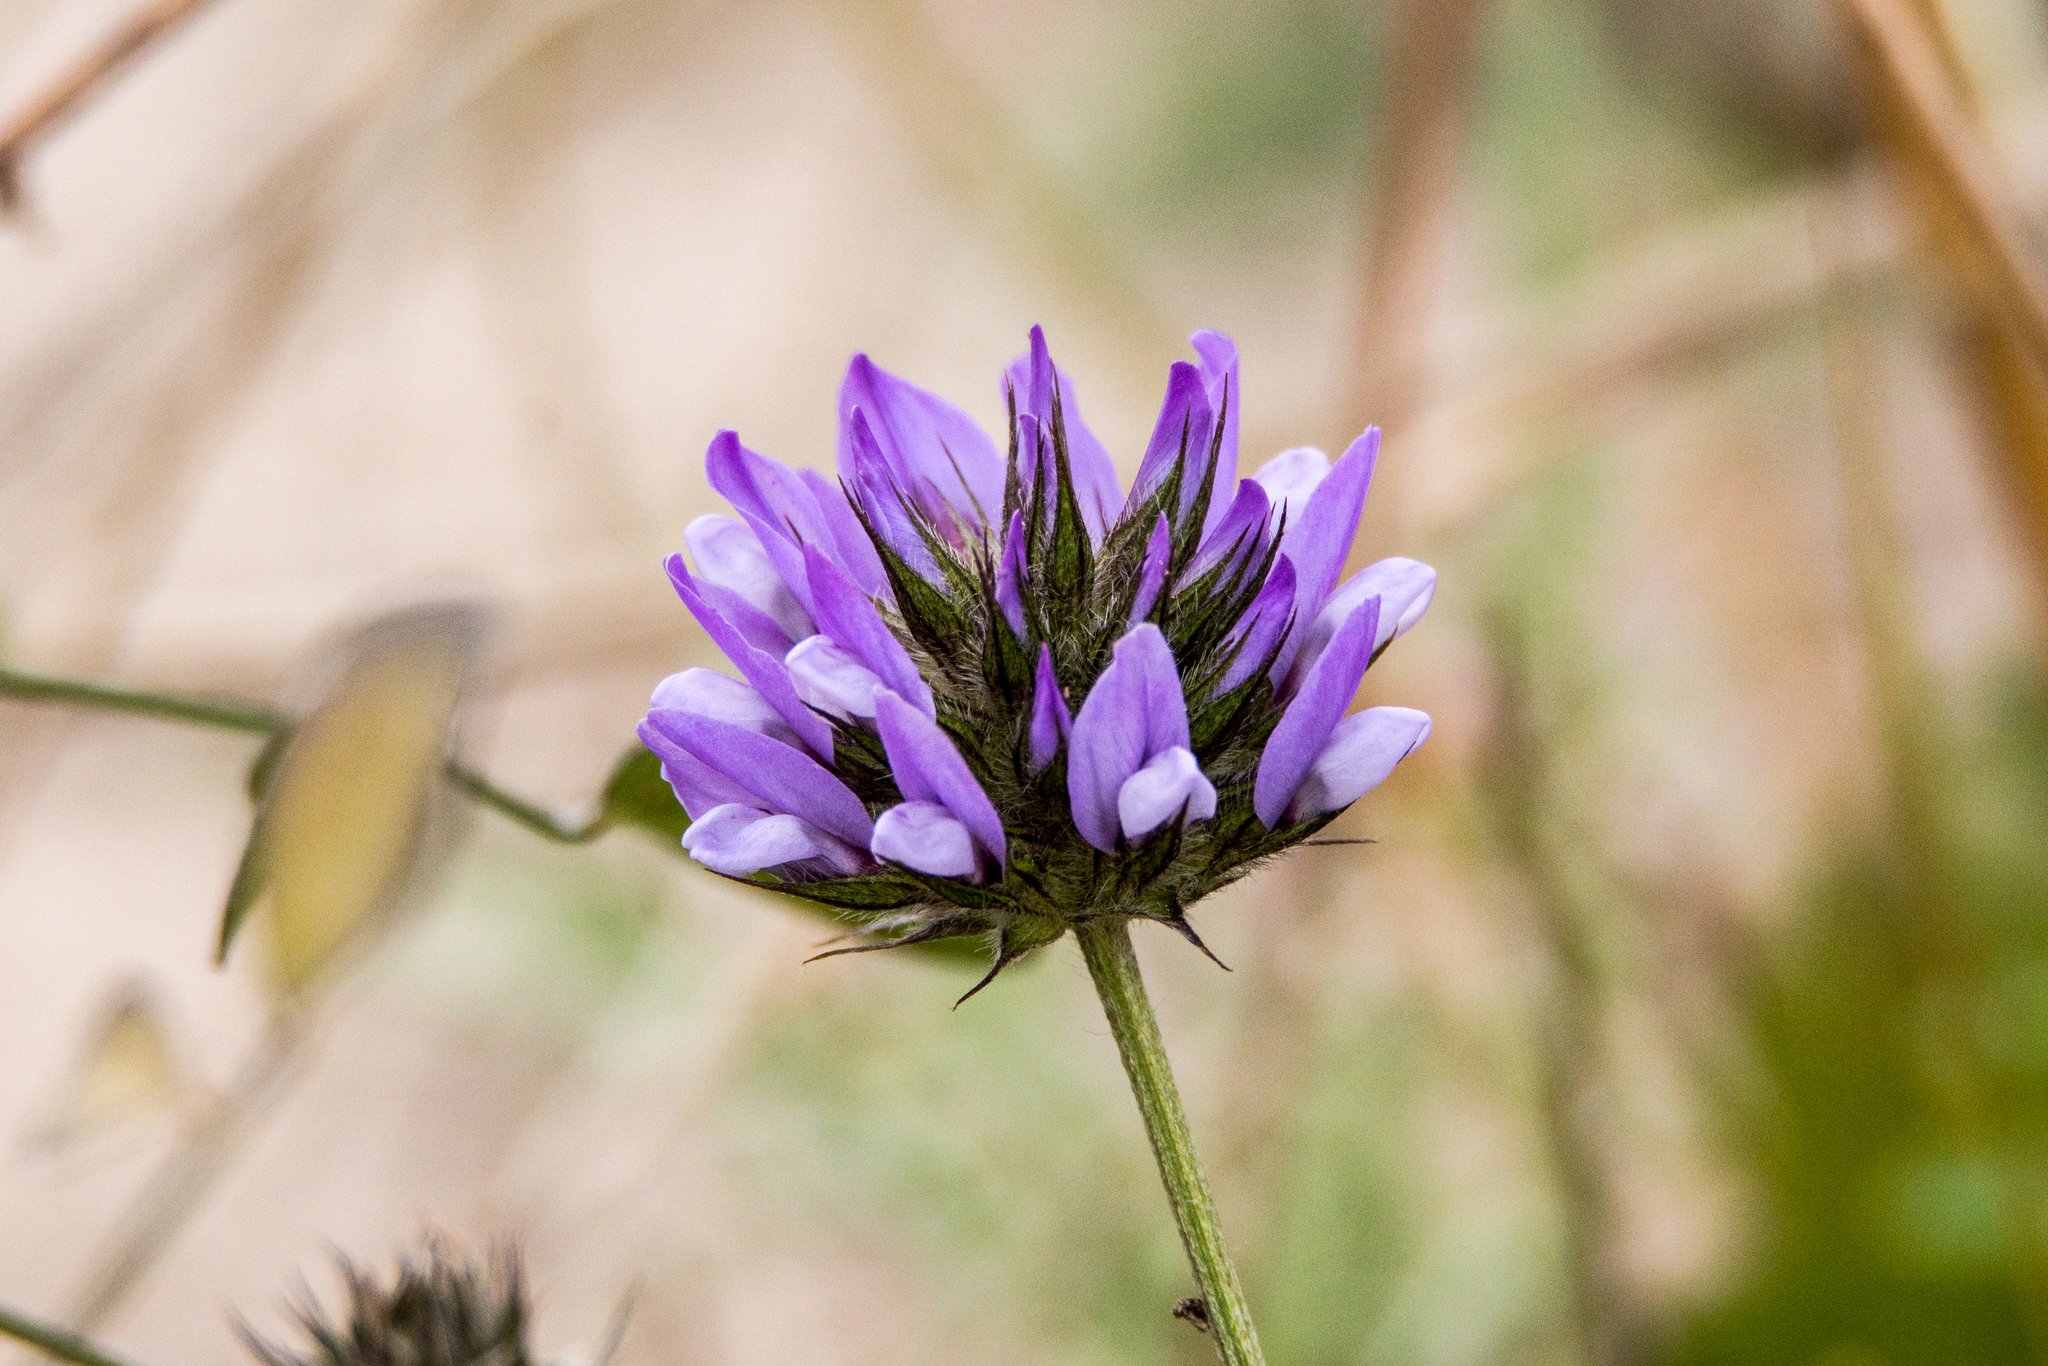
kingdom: Plantae
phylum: Tracheophyta
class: Magnoliopsida
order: Fabales
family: Fabaceae
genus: Bituminaria
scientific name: Bituminaria bituminosa
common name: Arabian pea
